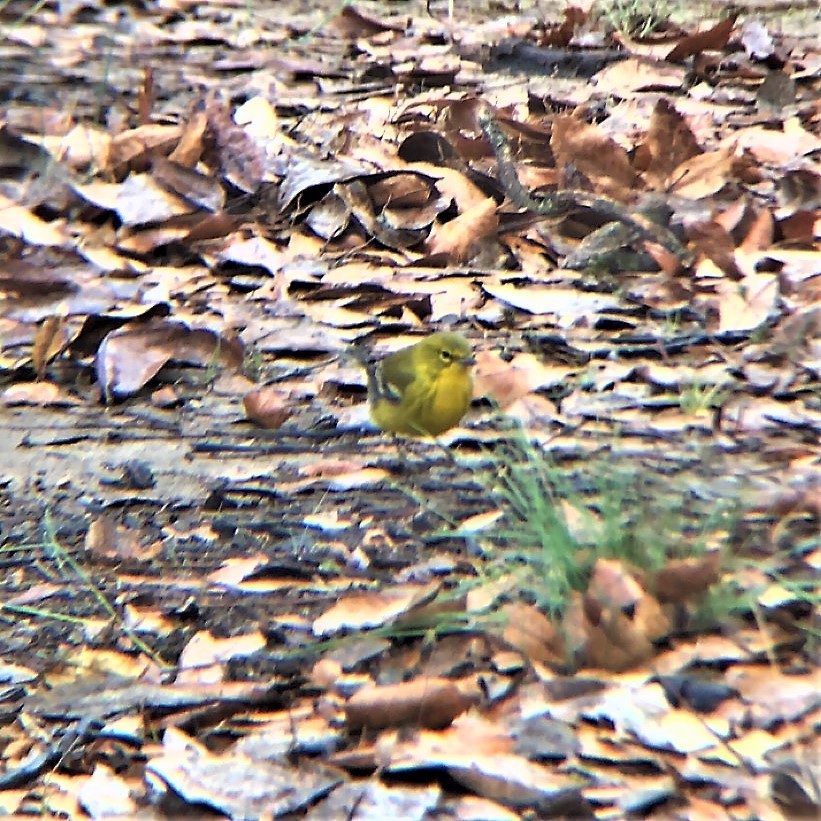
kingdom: Animalia
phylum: Chordata
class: Aves
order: Passeriformes
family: Parulidae
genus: Setophaga
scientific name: Setophaga pinus
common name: Pine warbler
